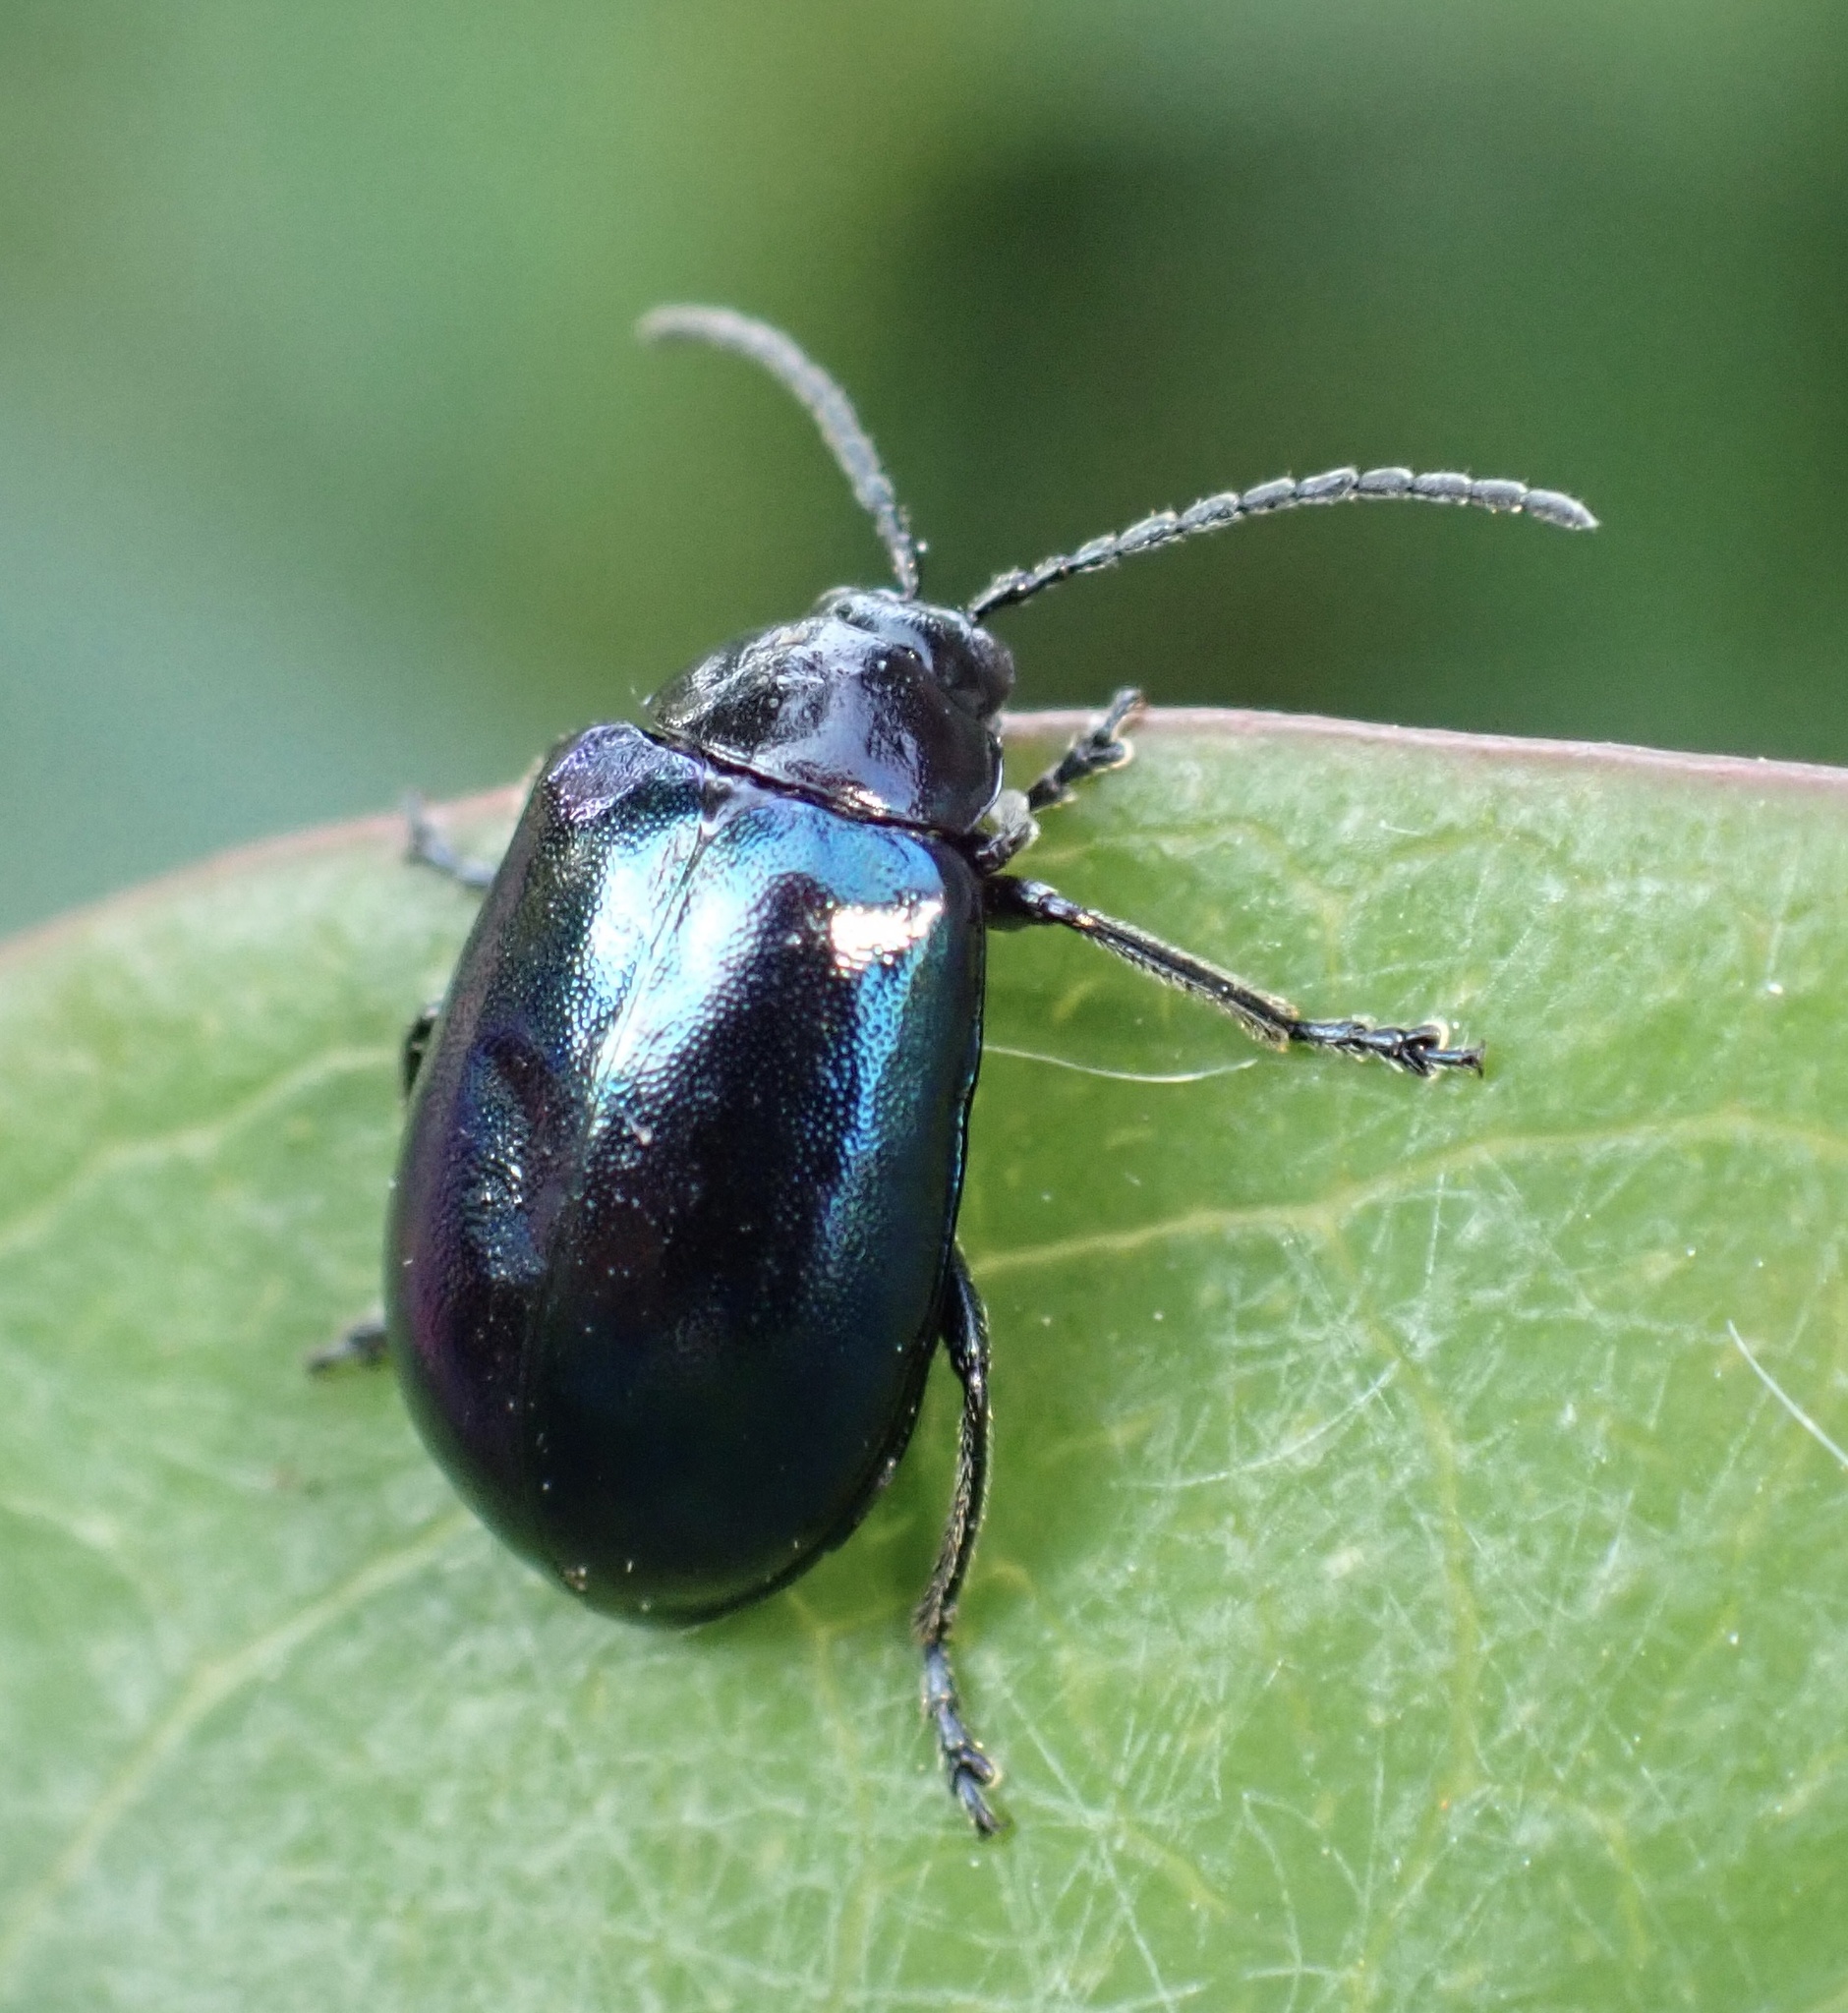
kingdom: Animalia
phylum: Arthropoda
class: Insecta
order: Coleoptera
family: Chrysomelidae
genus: Agelastica
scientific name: Agelastica alni
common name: Alder leaf beetle
